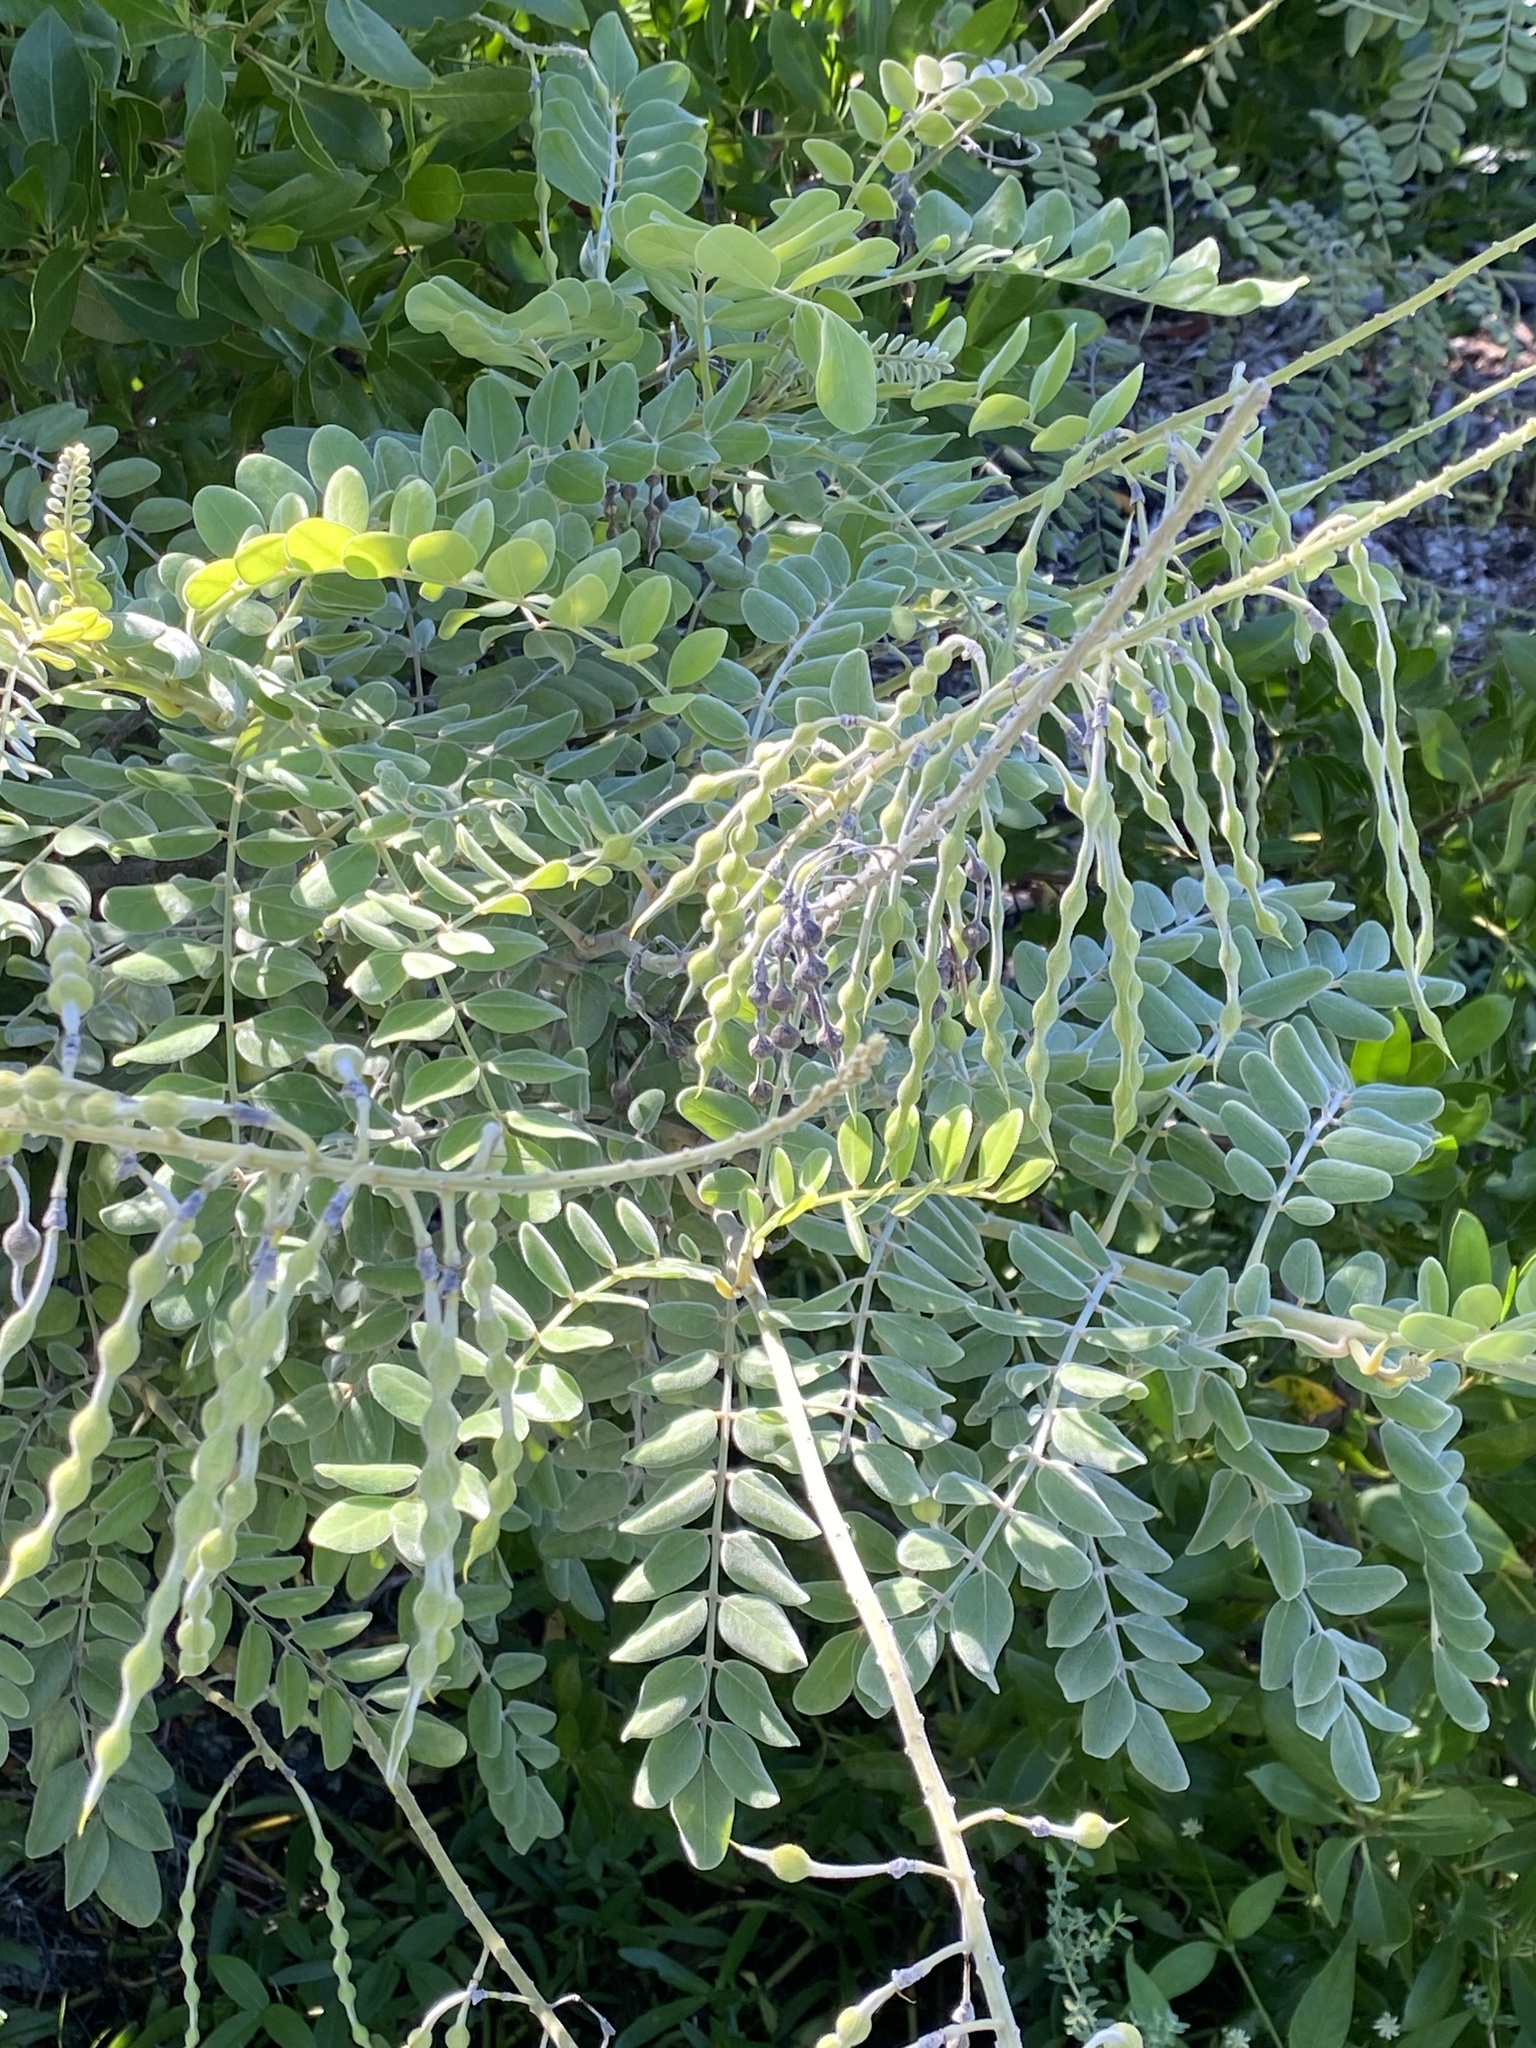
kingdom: Plantae
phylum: Tracheophyta
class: Magnoliopsida
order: Fabales
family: Fabaceae
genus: Sophora
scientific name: Sophora tomentosa
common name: Yellow necklacepod
